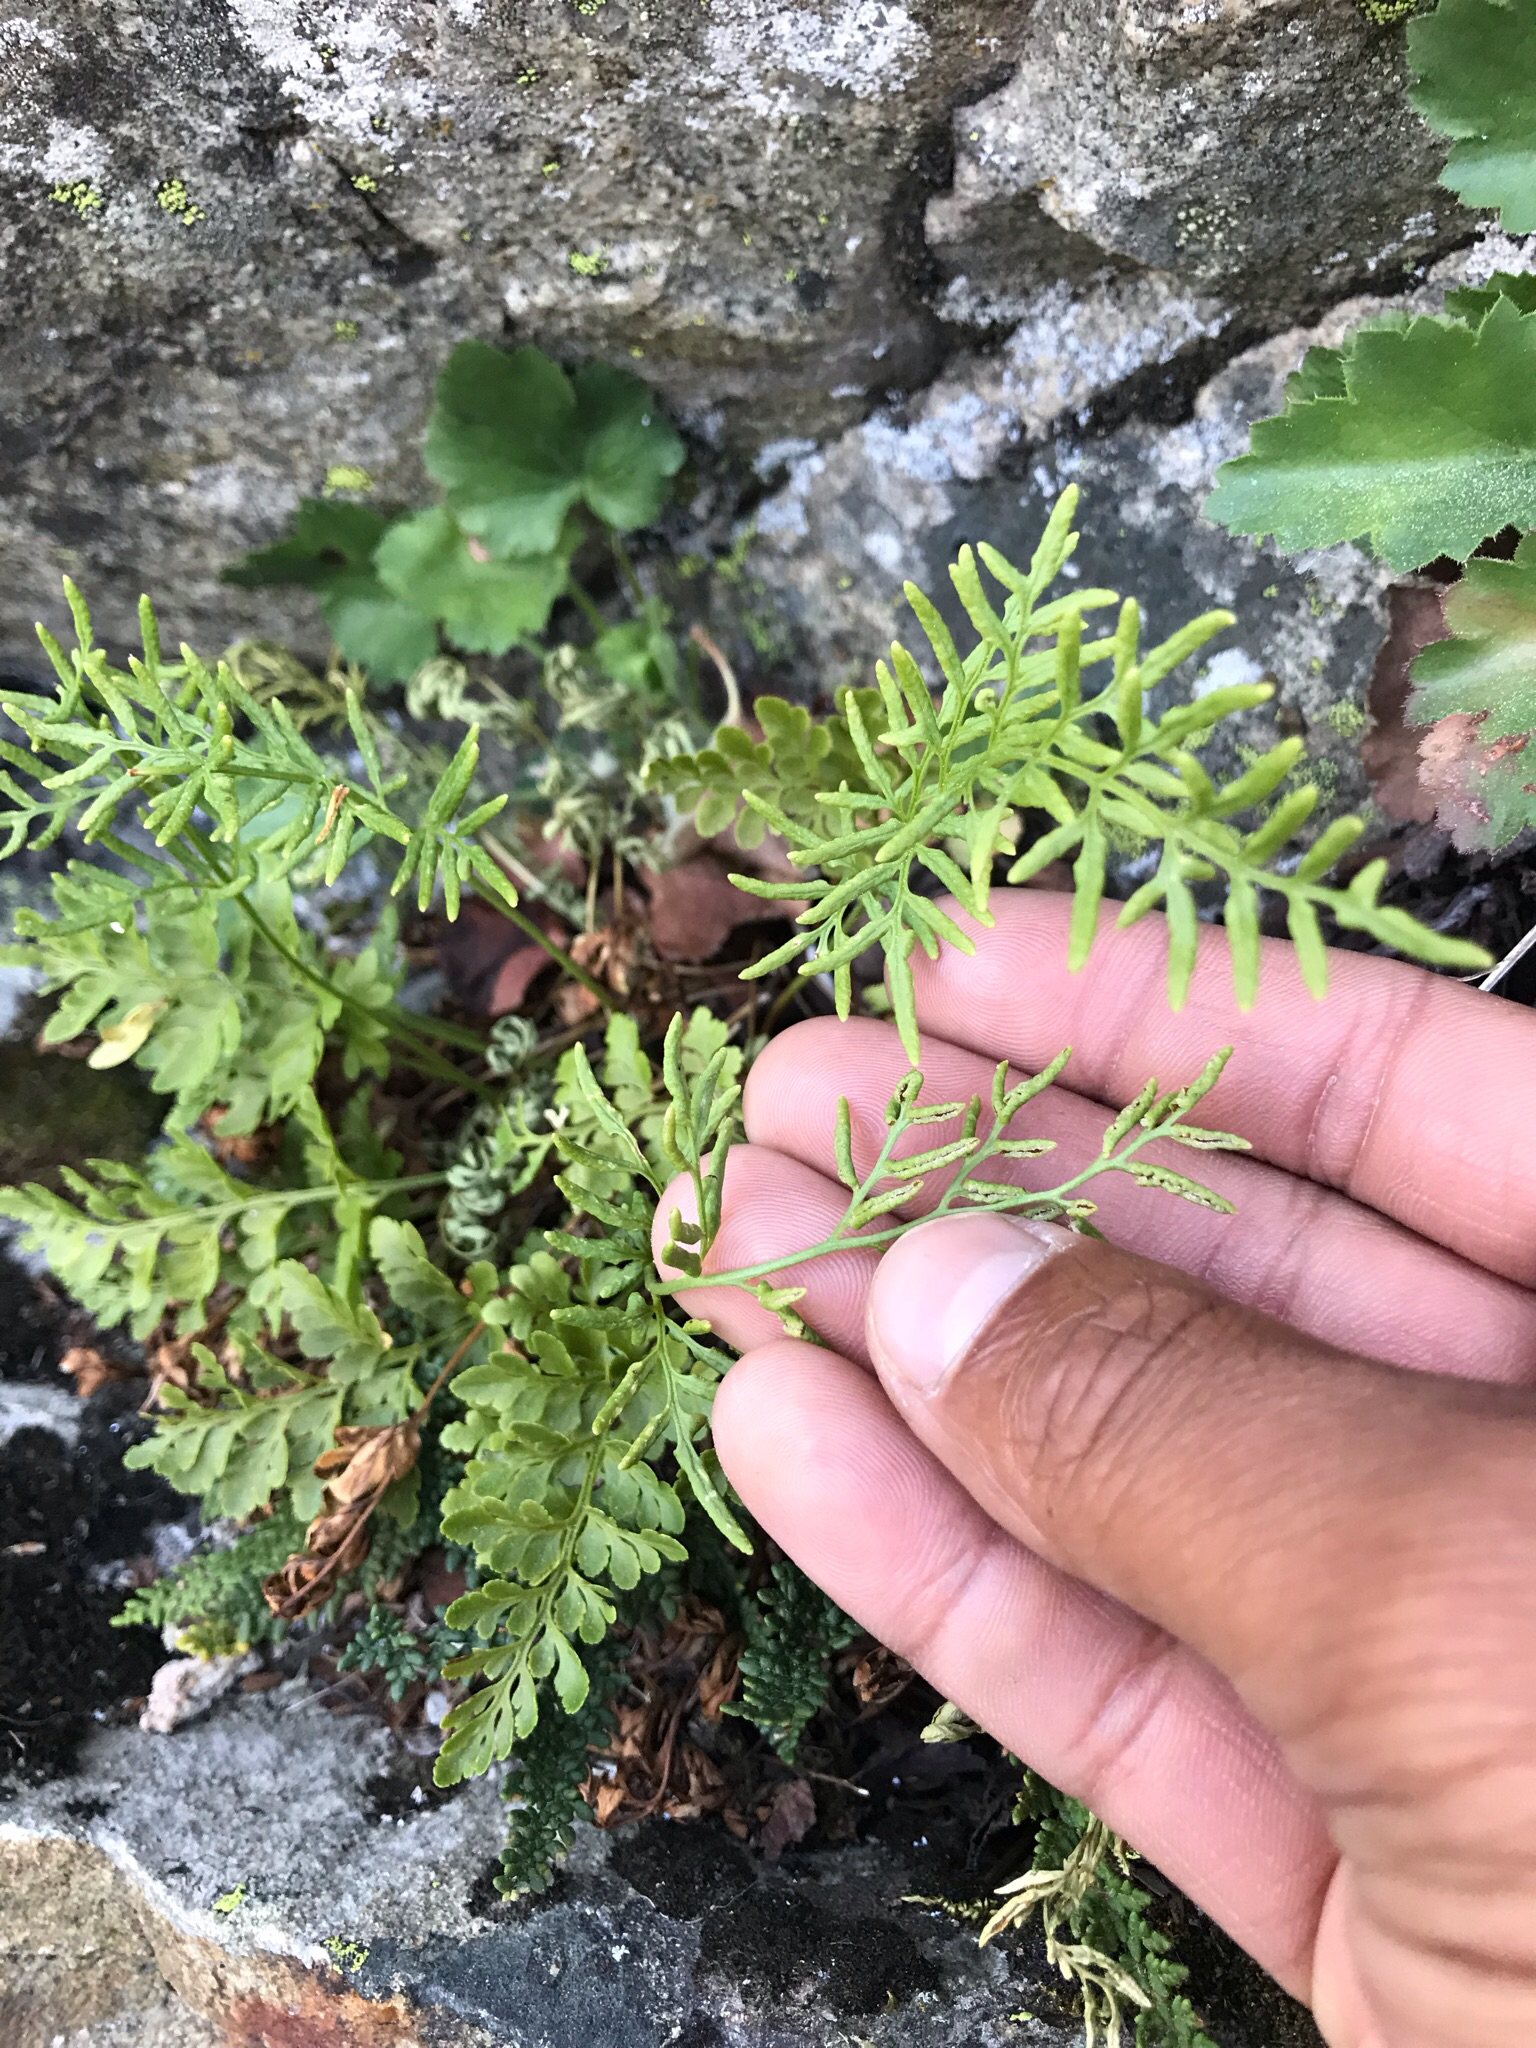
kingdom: Plantae
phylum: Tracheophyta
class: Polypodiopsida
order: Polypodiales
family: Pteridaceae
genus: Cryptogramma
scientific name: Cryptogramma acrostichoides
